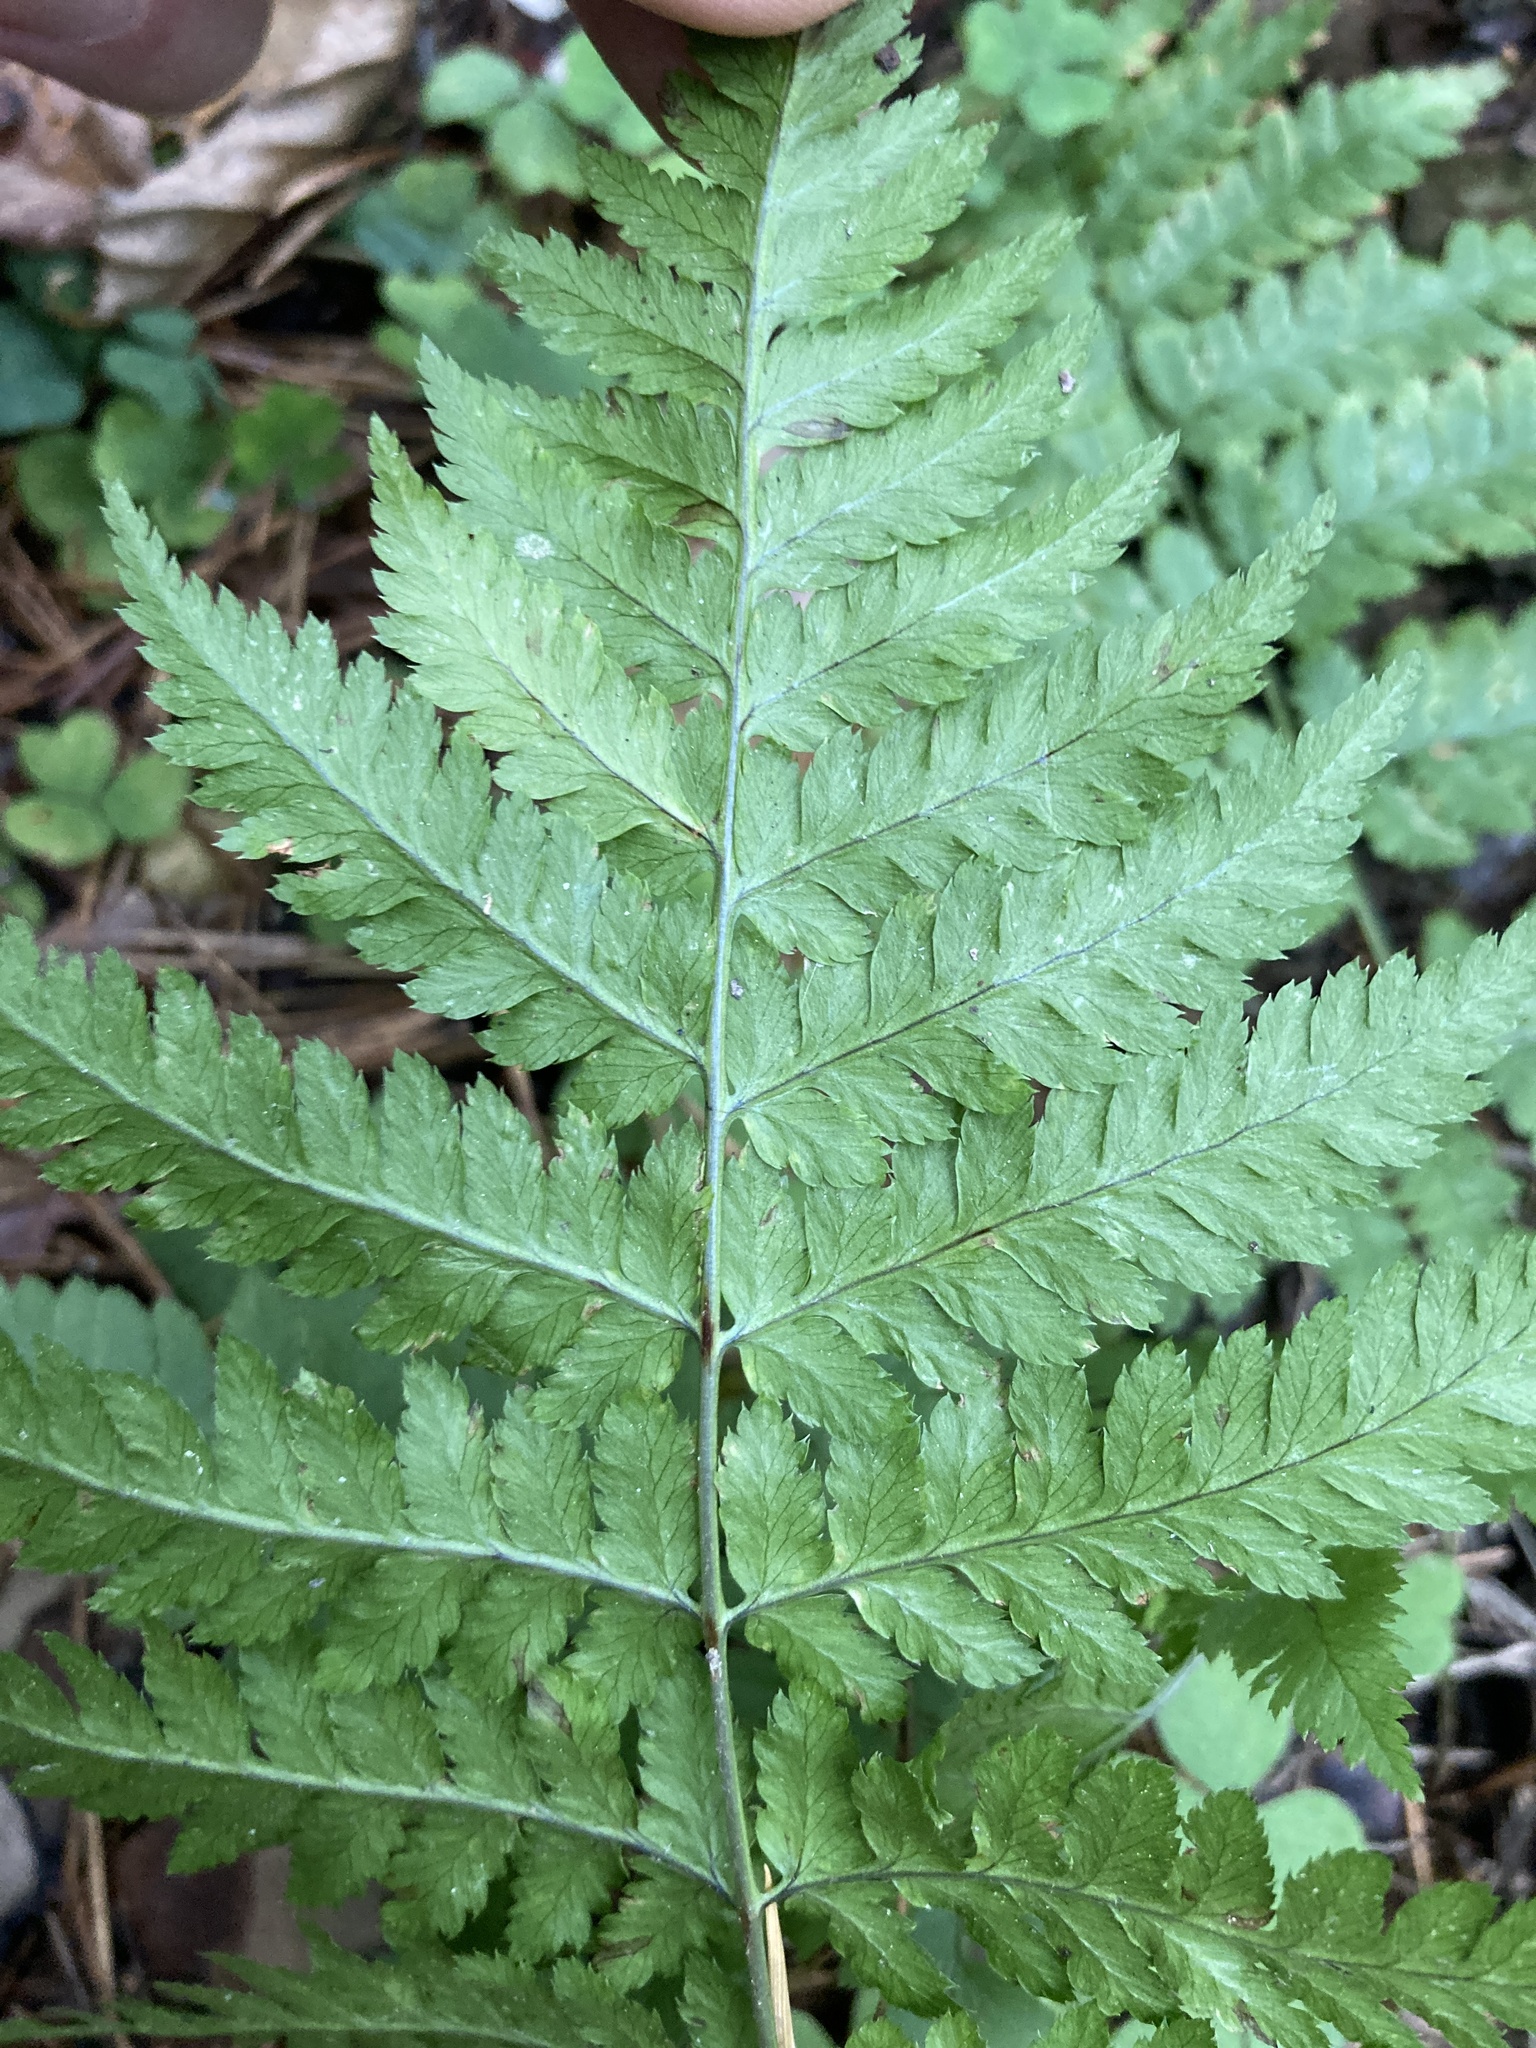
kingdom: Plantae
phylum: Tracheophyta
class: Polypodiopsida
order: Polypodiales
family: Dryopteridaceae
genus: Dryopteris
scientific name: Dryopteris carthusiana
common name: Narrow buckler-fern
